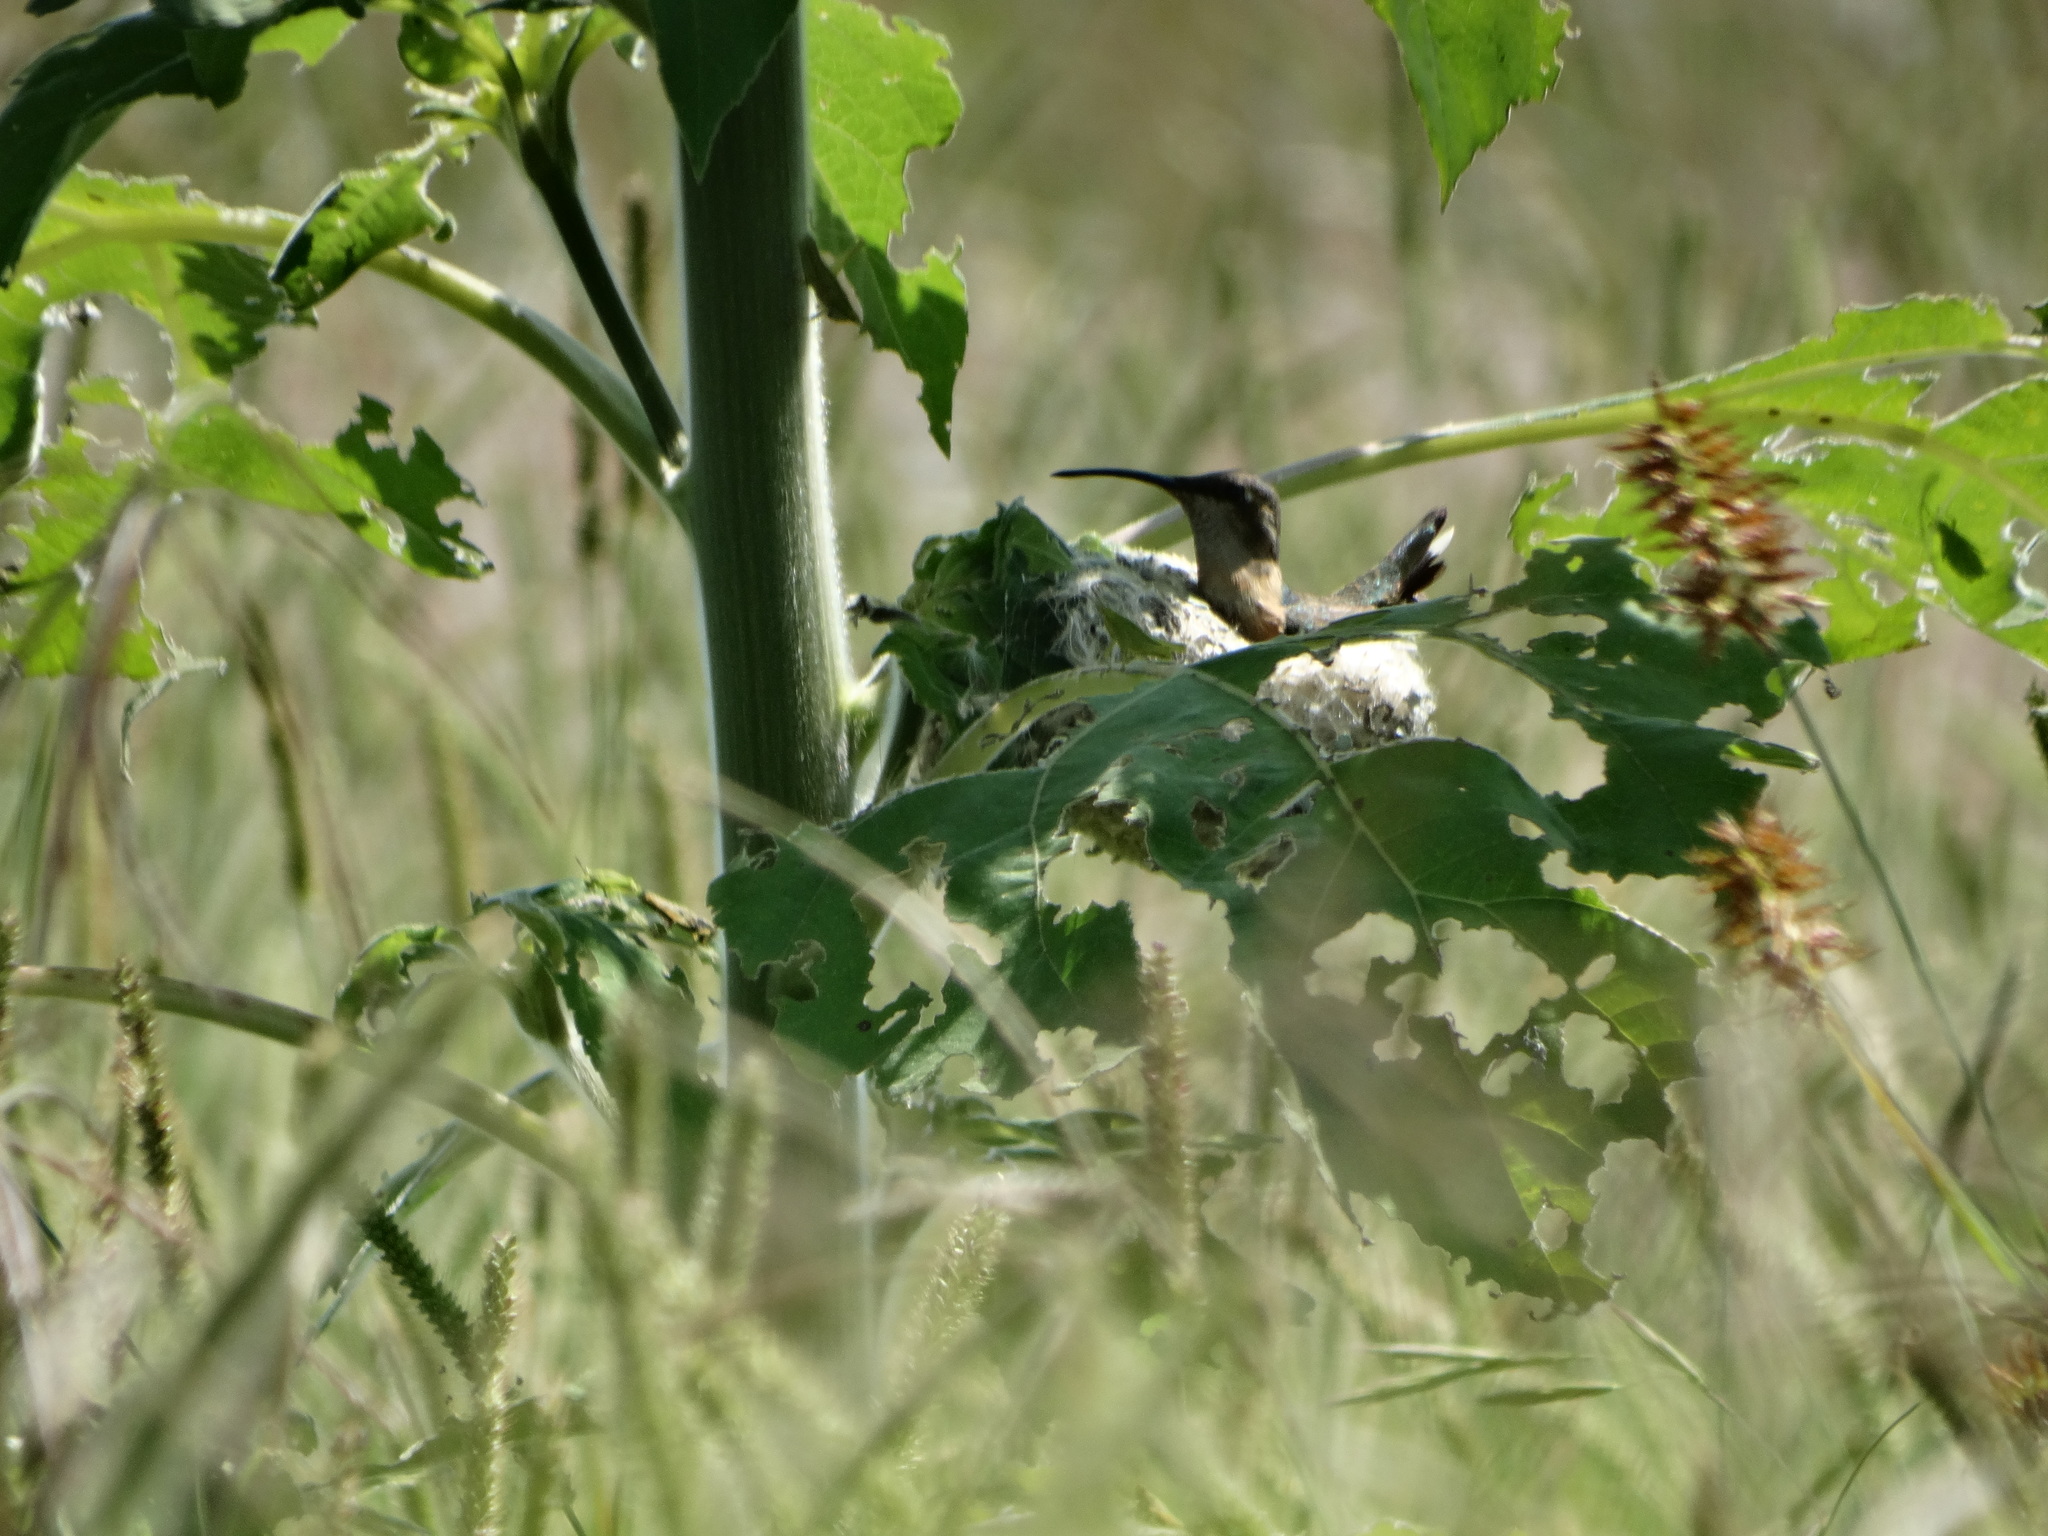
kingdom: Animalia
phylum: Chordata
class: Aves
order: Apodiformes
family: Trochilidae
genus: Calothorax
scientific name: Calothorax lucifer
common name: Lucifer sheartail
